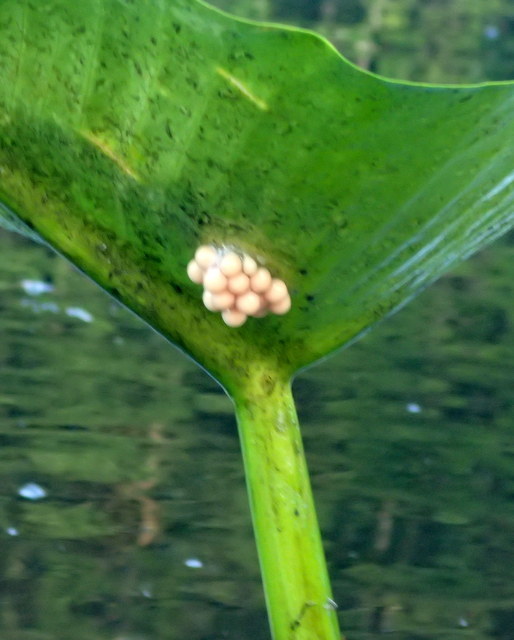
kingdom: Animalia
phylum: Mollusca
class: Gastropoda
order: Architaenioglossa
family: Ampullariidae
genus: Pomacea
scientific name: Pomacea paludosa
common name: Florida applesnail
